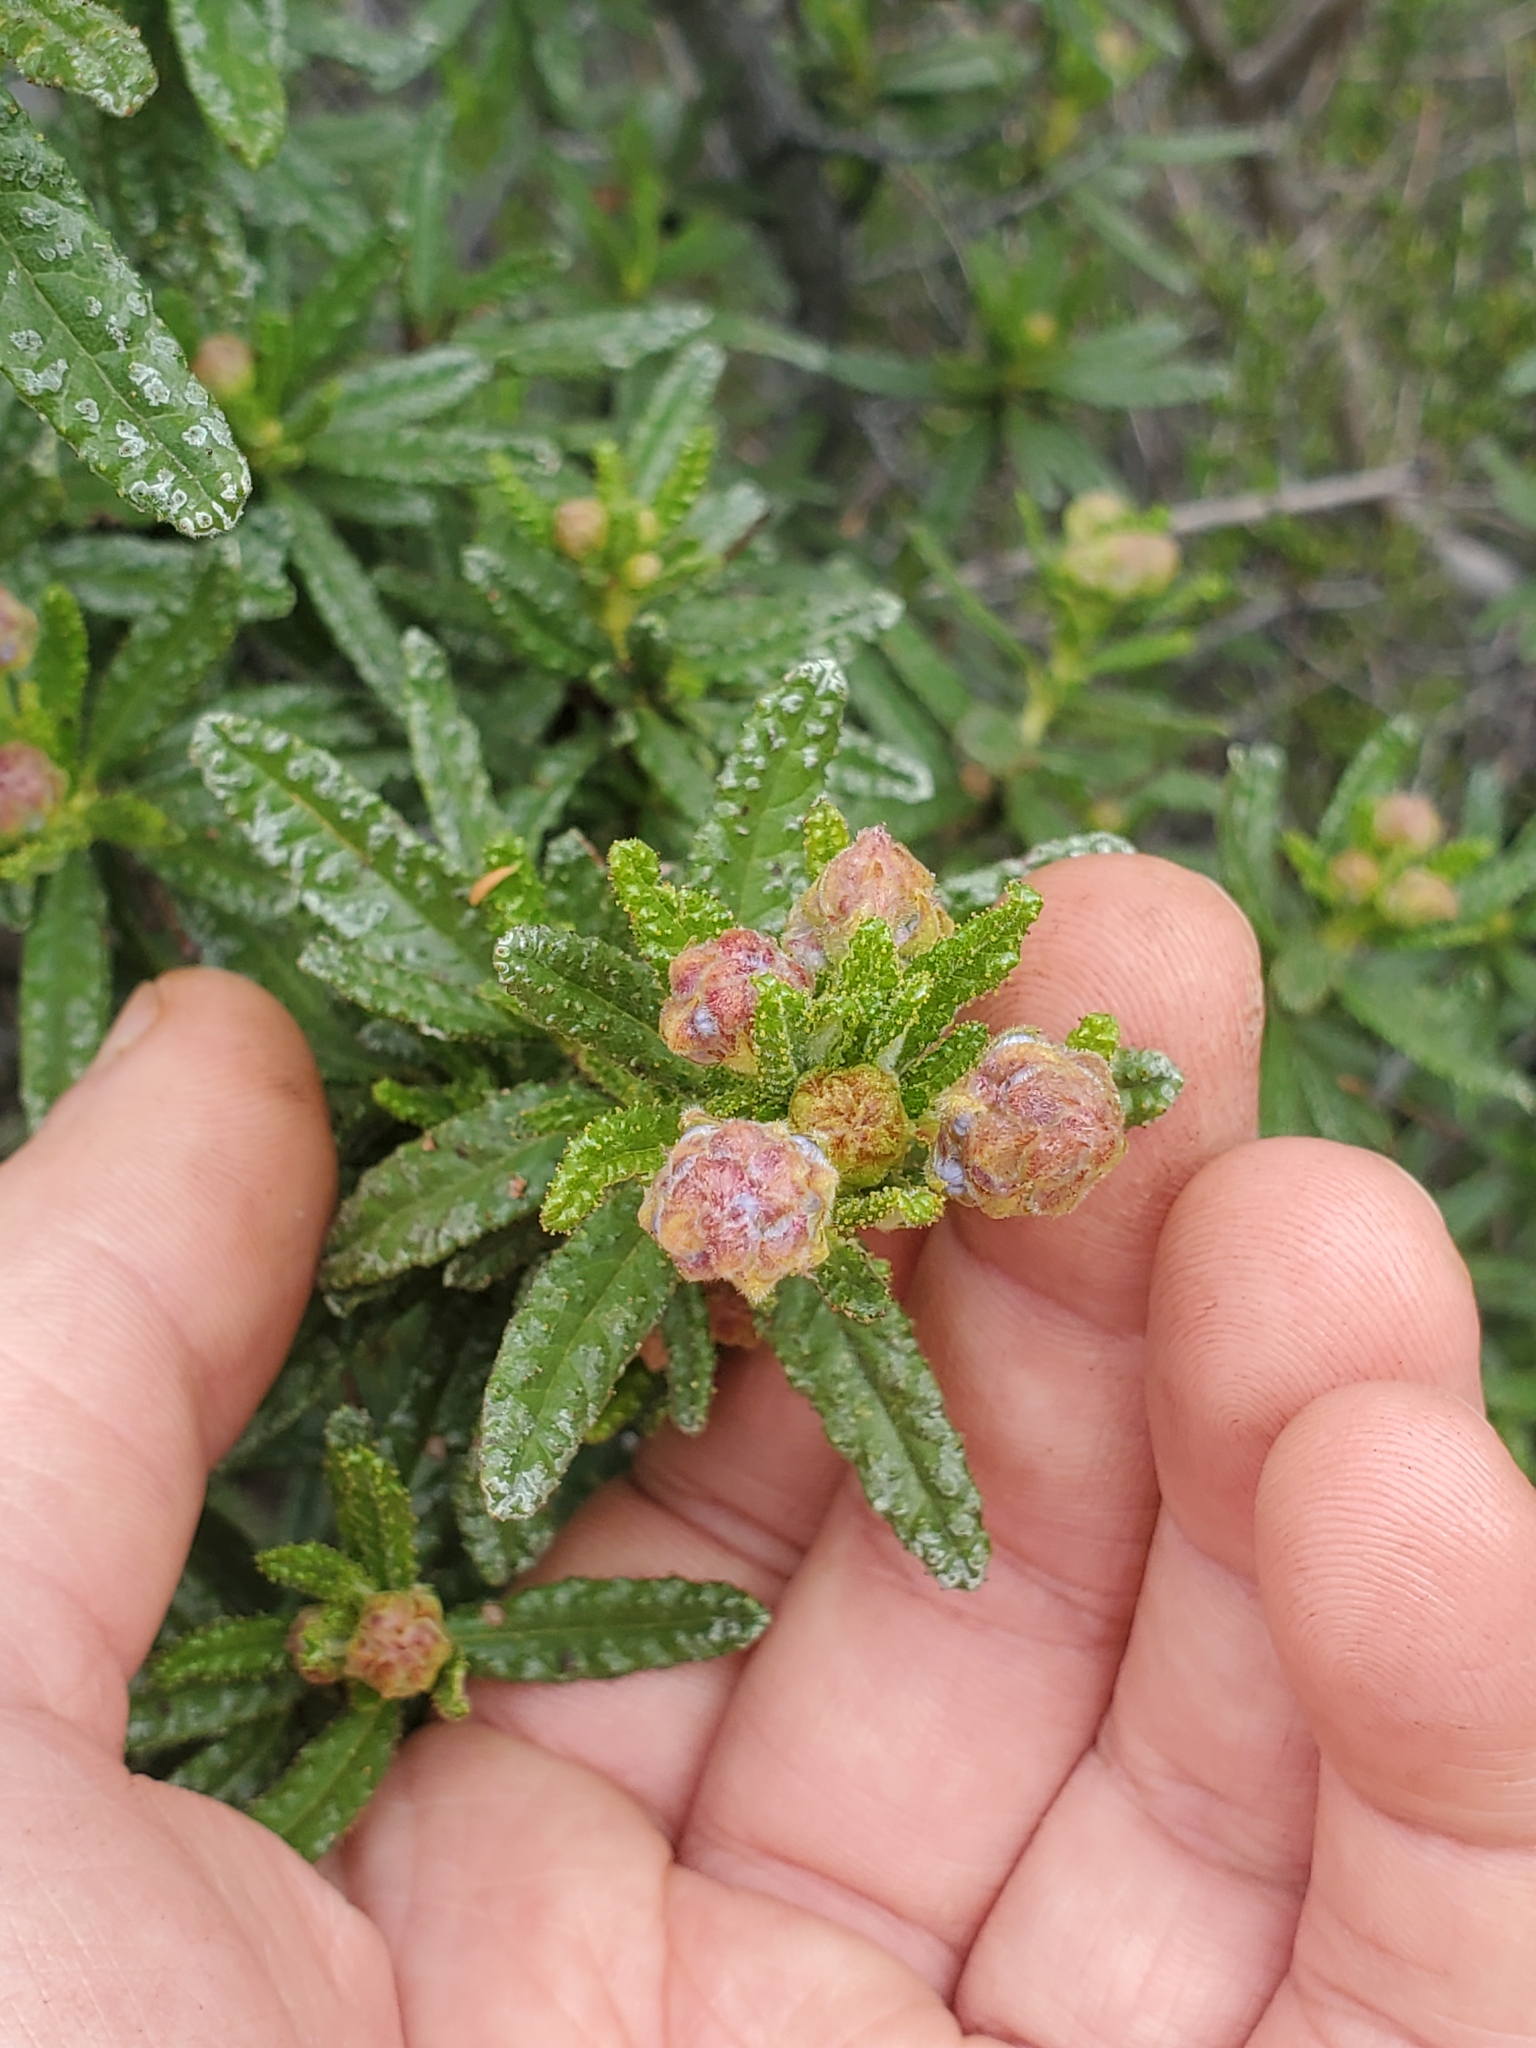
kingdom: Plantae
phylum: Tracheophyta
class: Magnoliopsida
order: Rosales
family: Rhamnaceae
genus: Ceanothus
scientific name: Ceanothus papillosus
